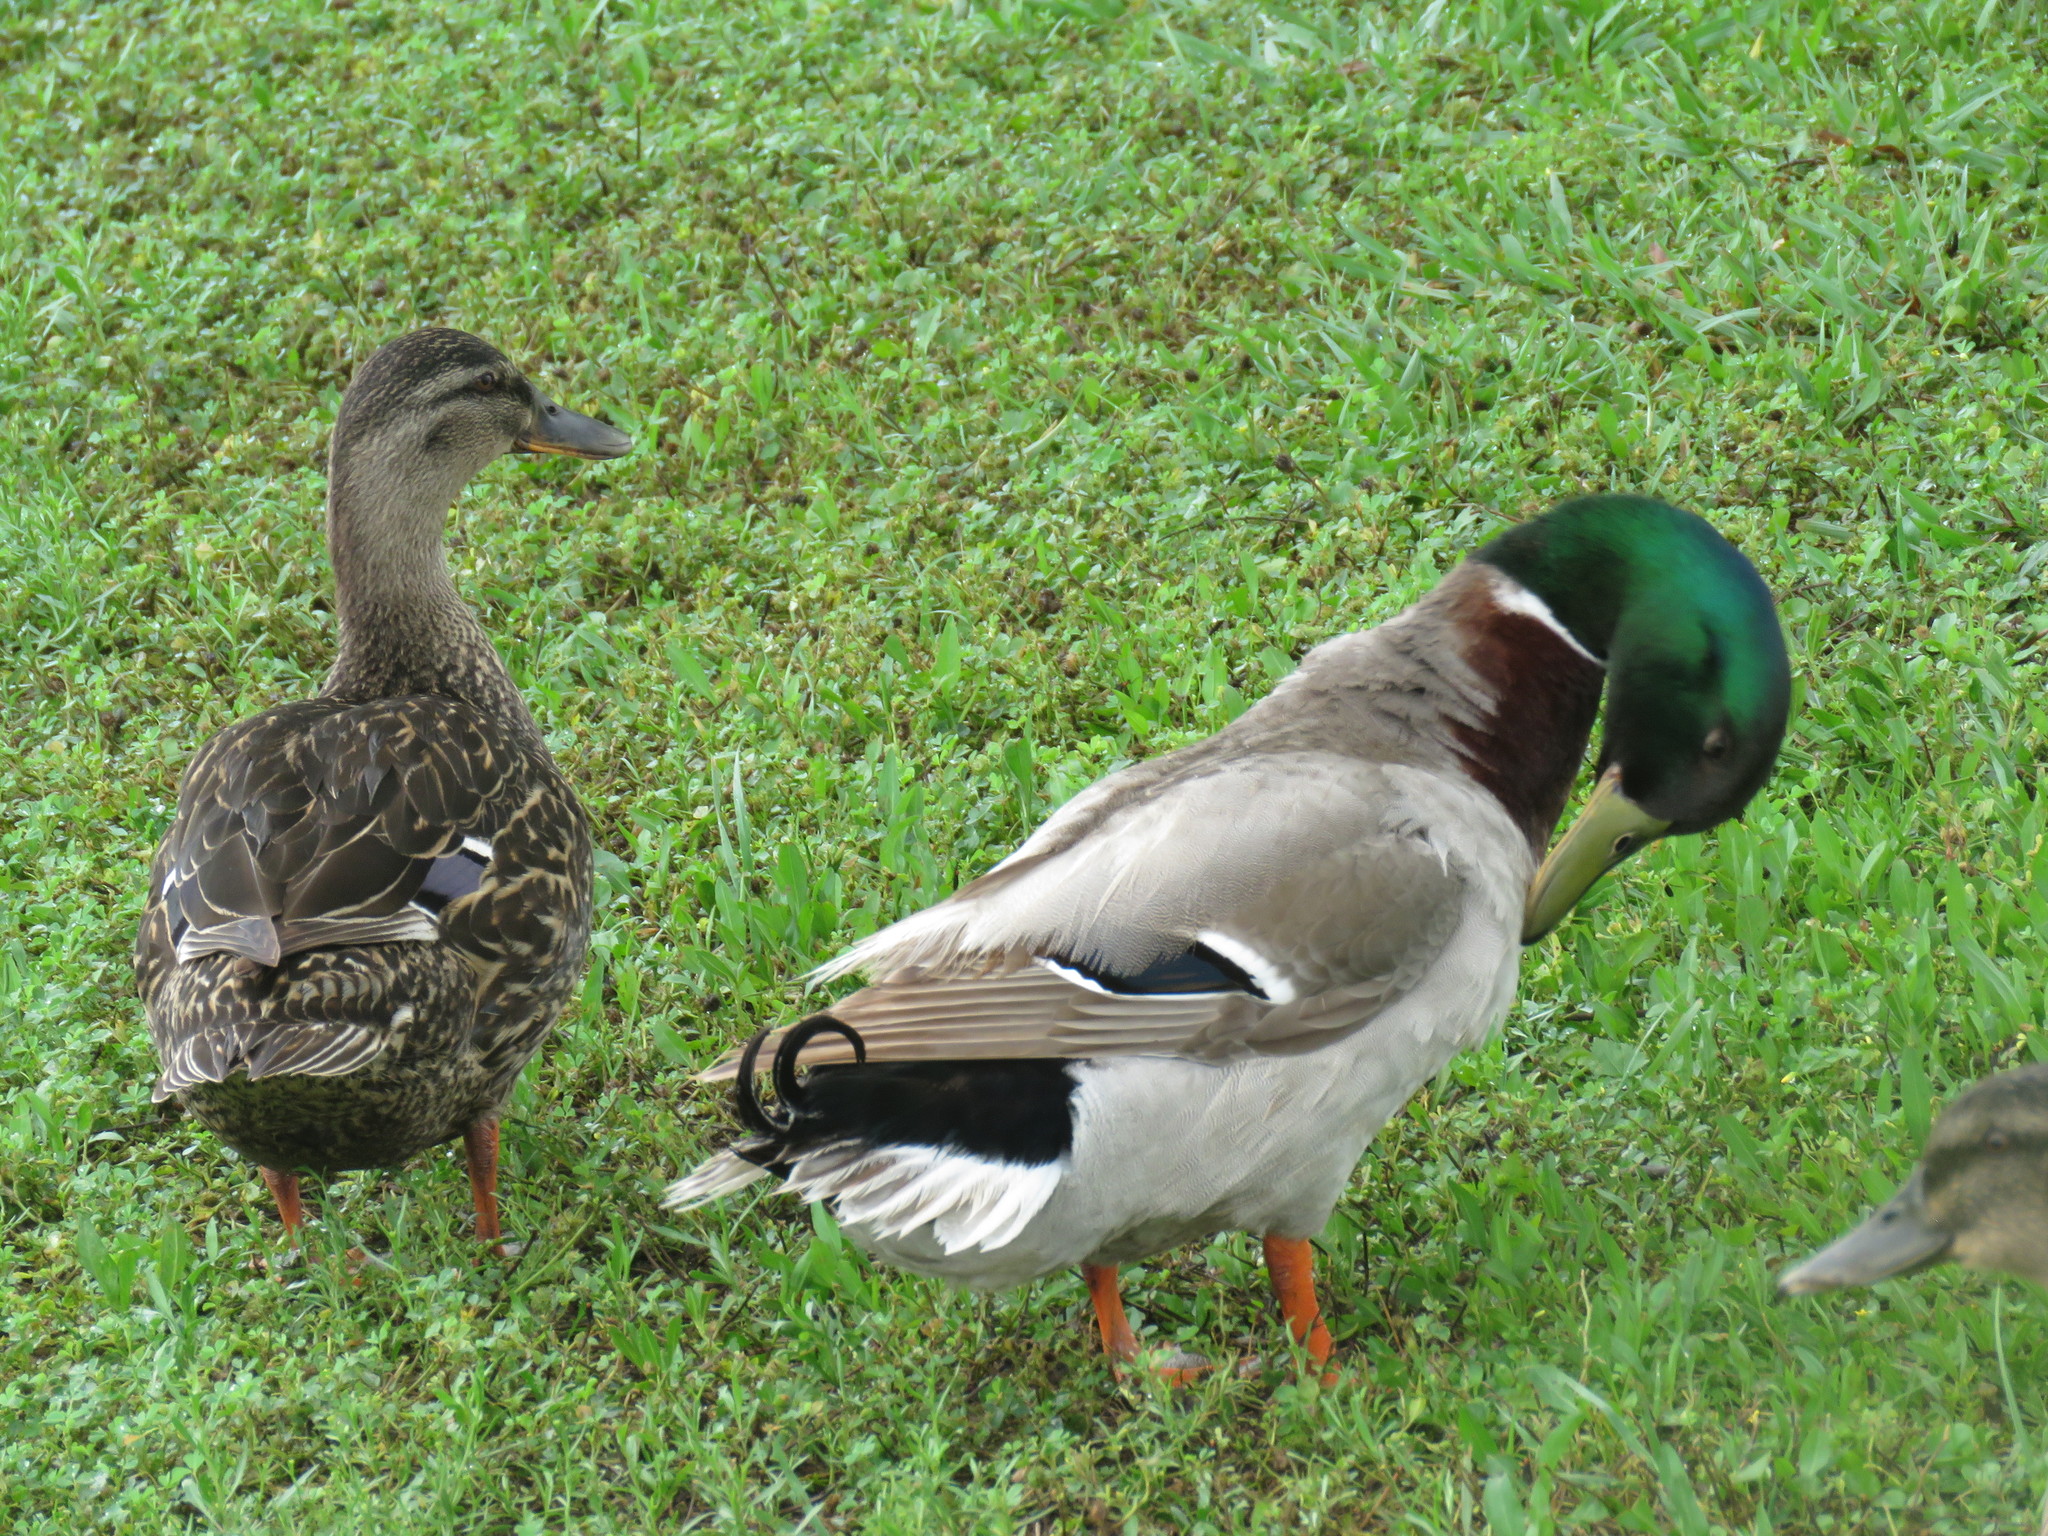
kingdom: Animalia
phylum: Chordata
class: Aves
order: Anseriformes
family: Anatidae
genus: Anas
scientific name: Anas platyrhynchos
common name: Mallard
